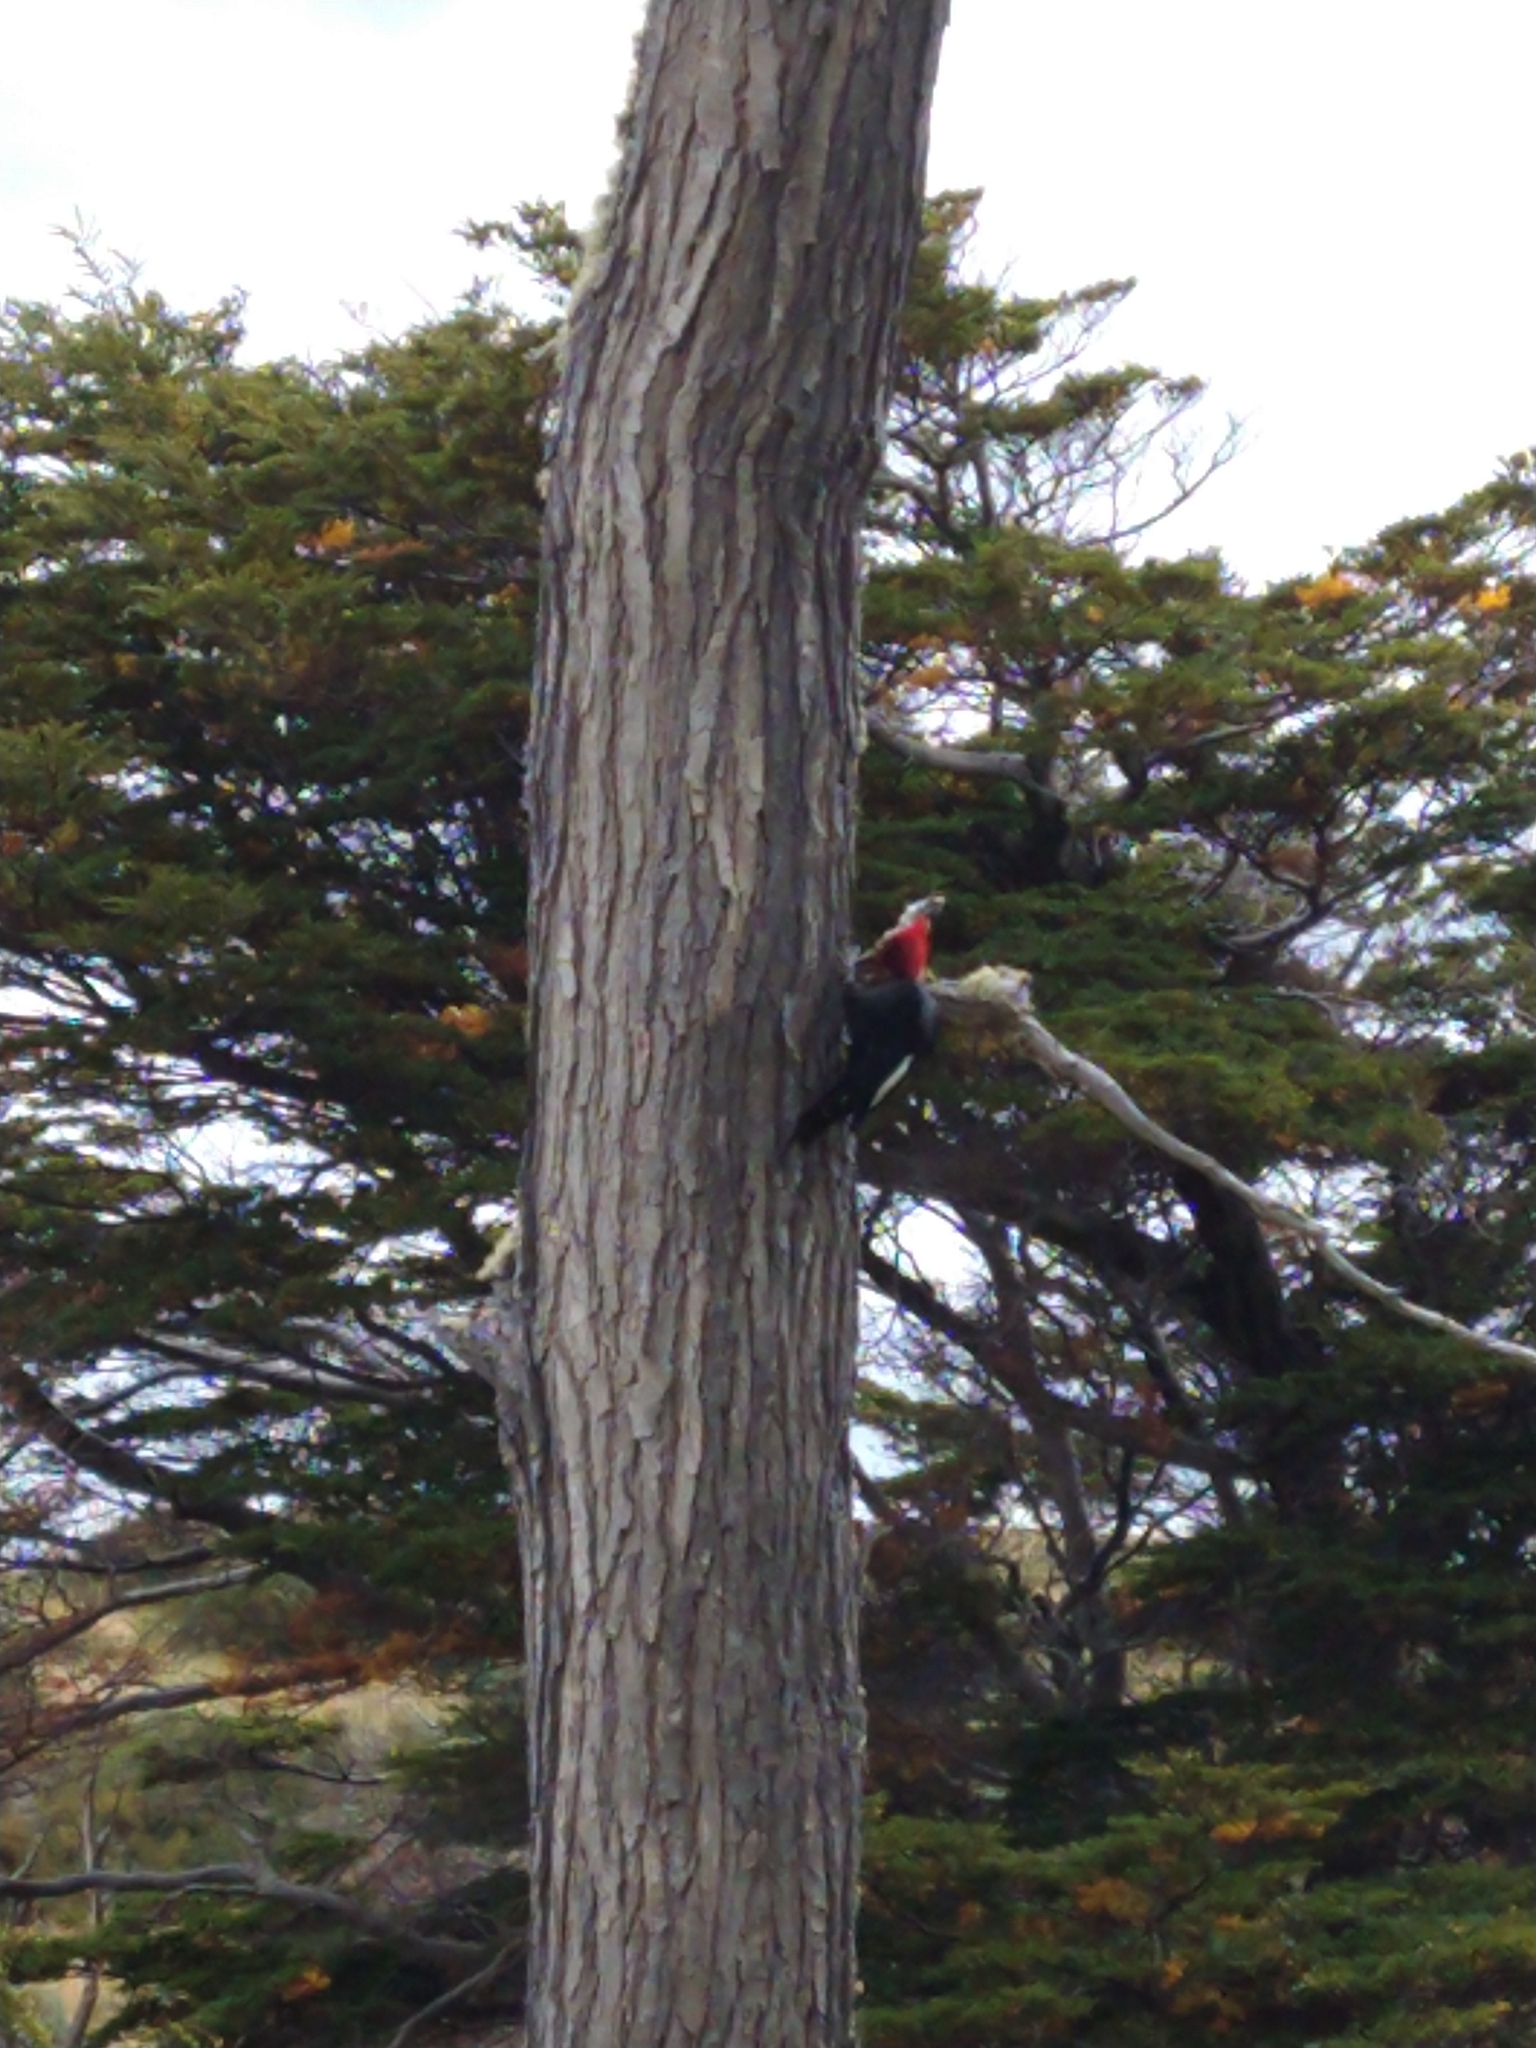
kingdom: Animalia
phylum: Chordata
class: Aves
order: Piciformes
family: Picidae
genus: Campephilus
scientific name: Campephilus magellanicus
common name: Magellanic woodpecker
